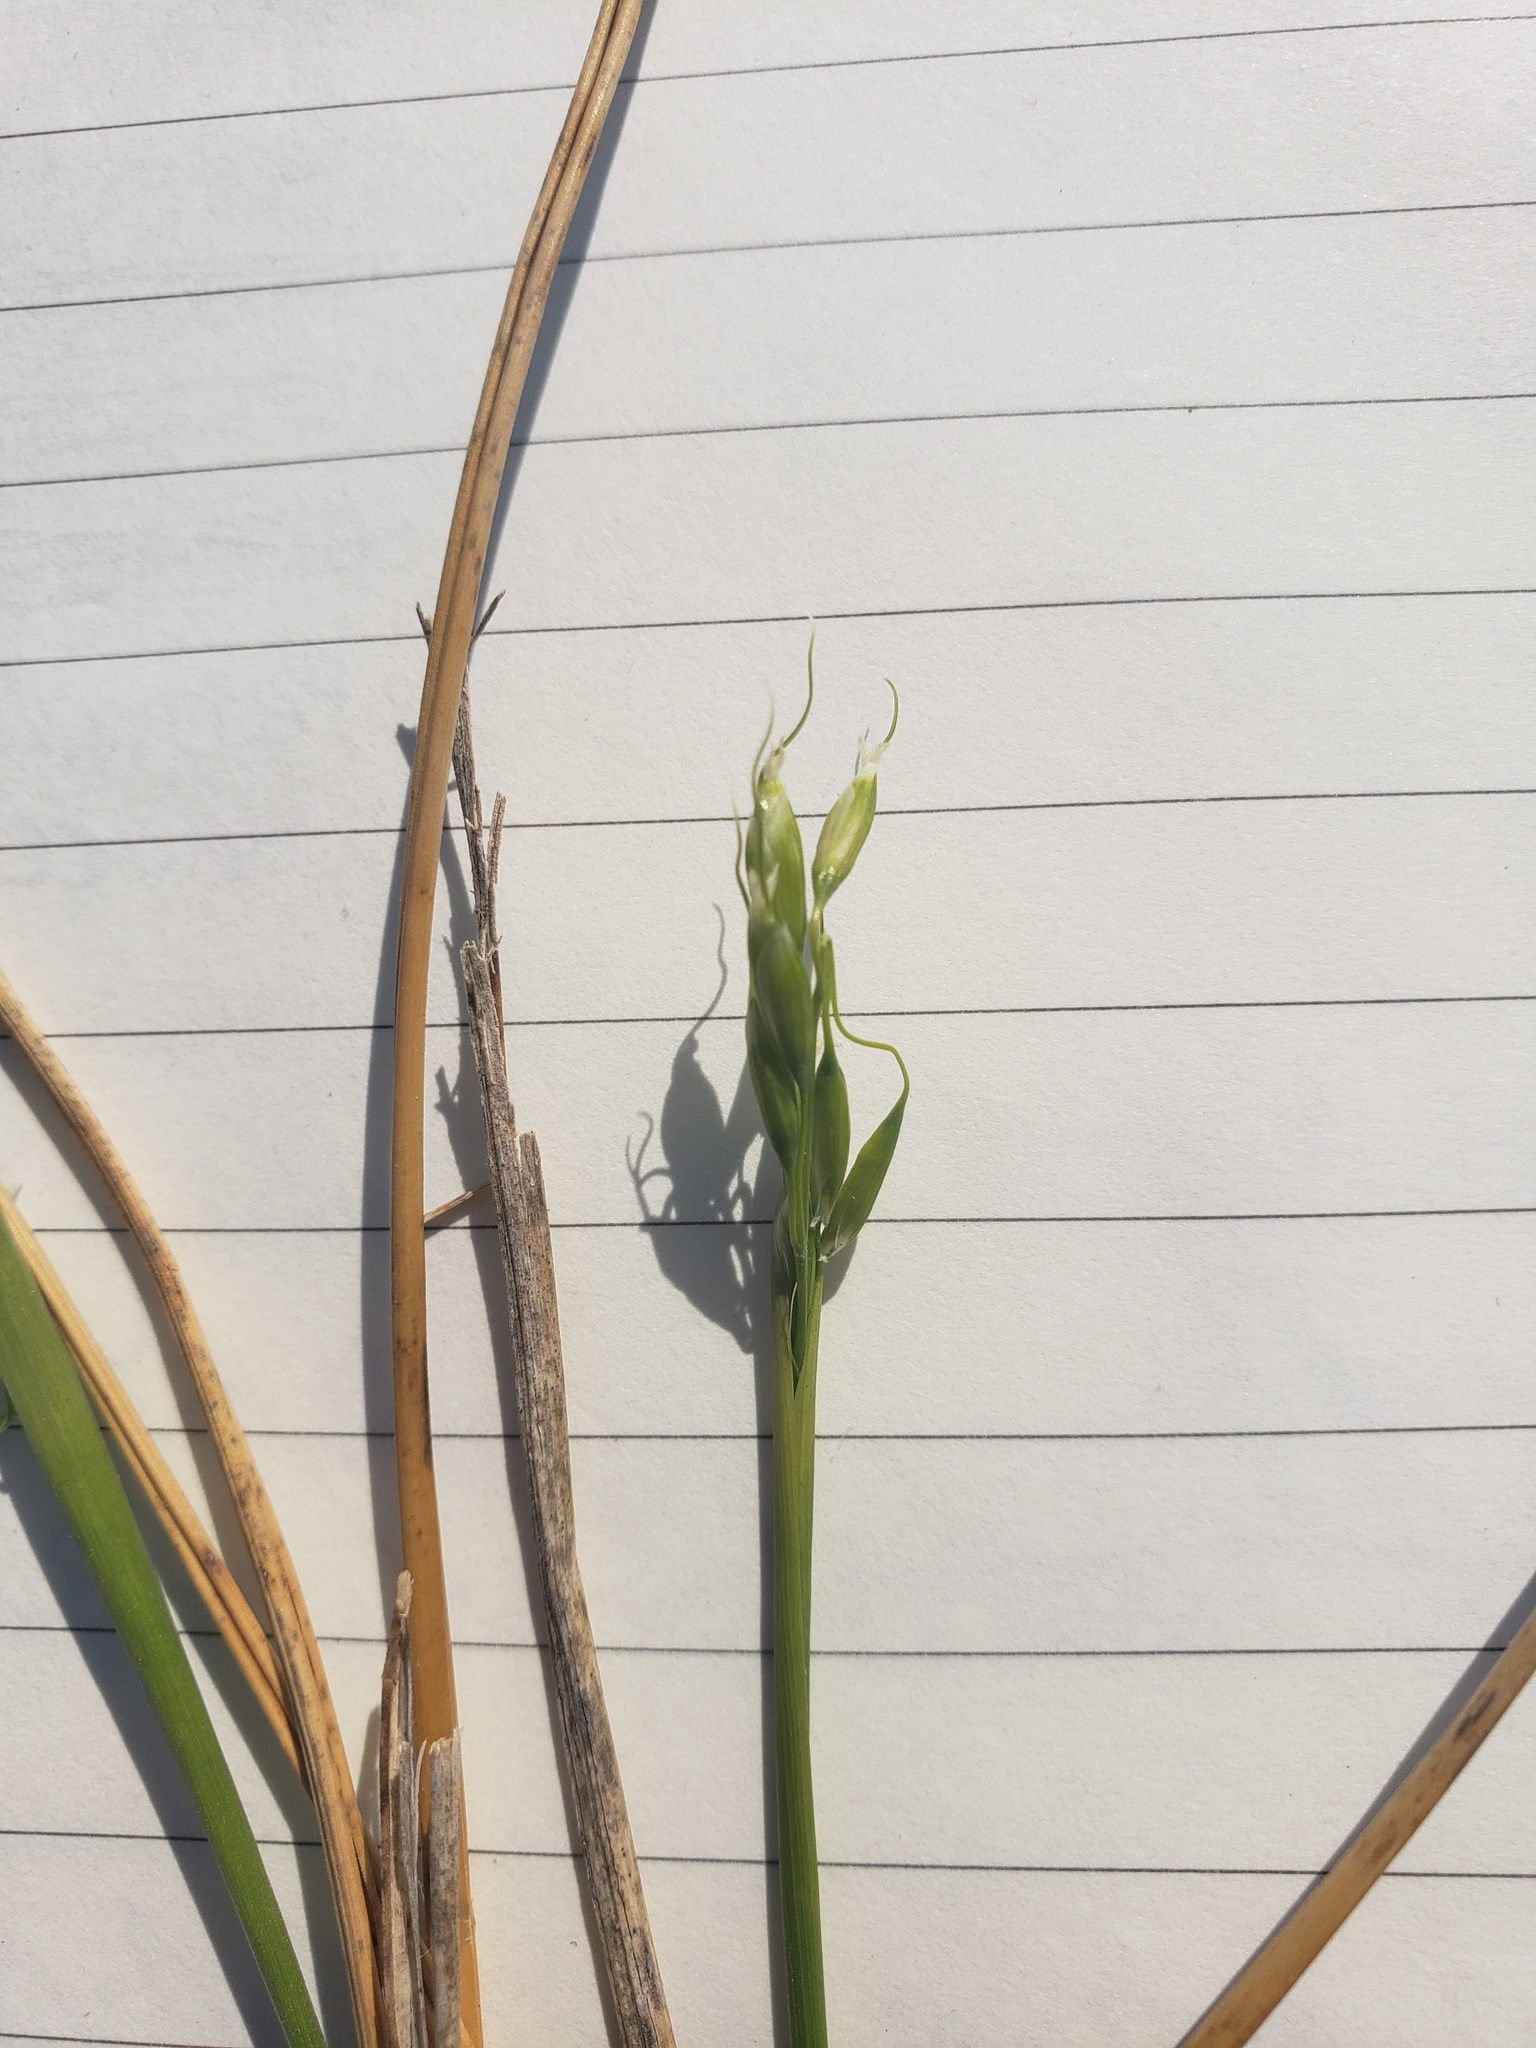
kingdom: Plantae
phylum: Tracheophyta
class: Liliopsida
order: Poales
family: Poaceae
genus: Oryzopsis
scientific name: Oryzopsis asperifolia
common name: Rough-leaved mountain rice
